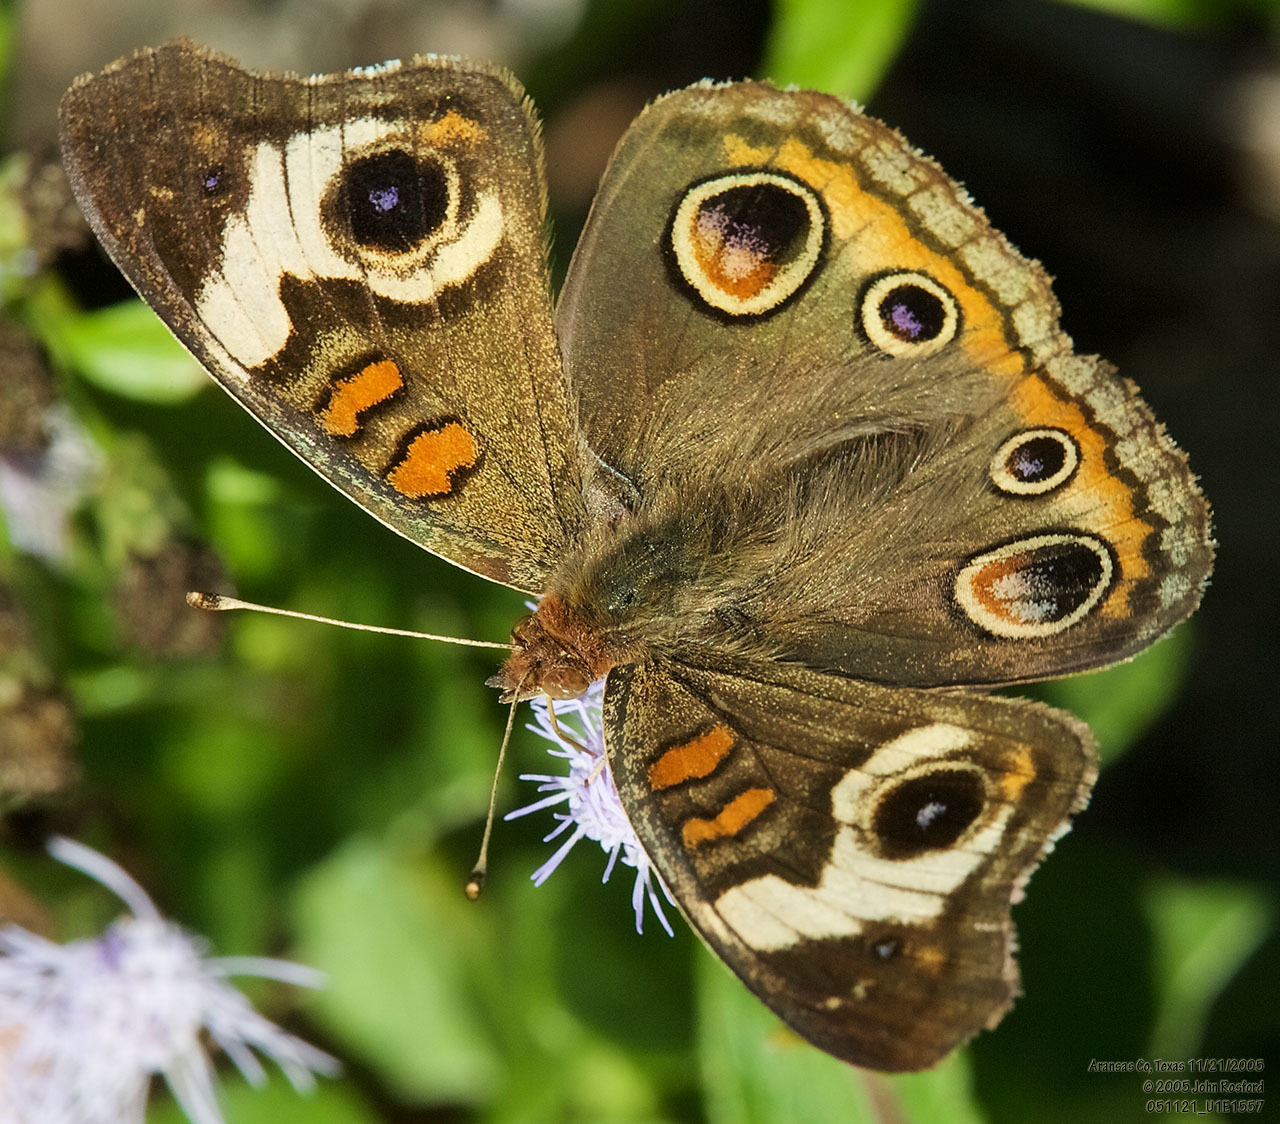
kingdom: Animalia
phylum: Arthropoda
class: Insecta
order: Lepidoptera
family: Nymphalidae
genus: Junonia
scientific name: Junonia coenia
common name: Common buckeye
